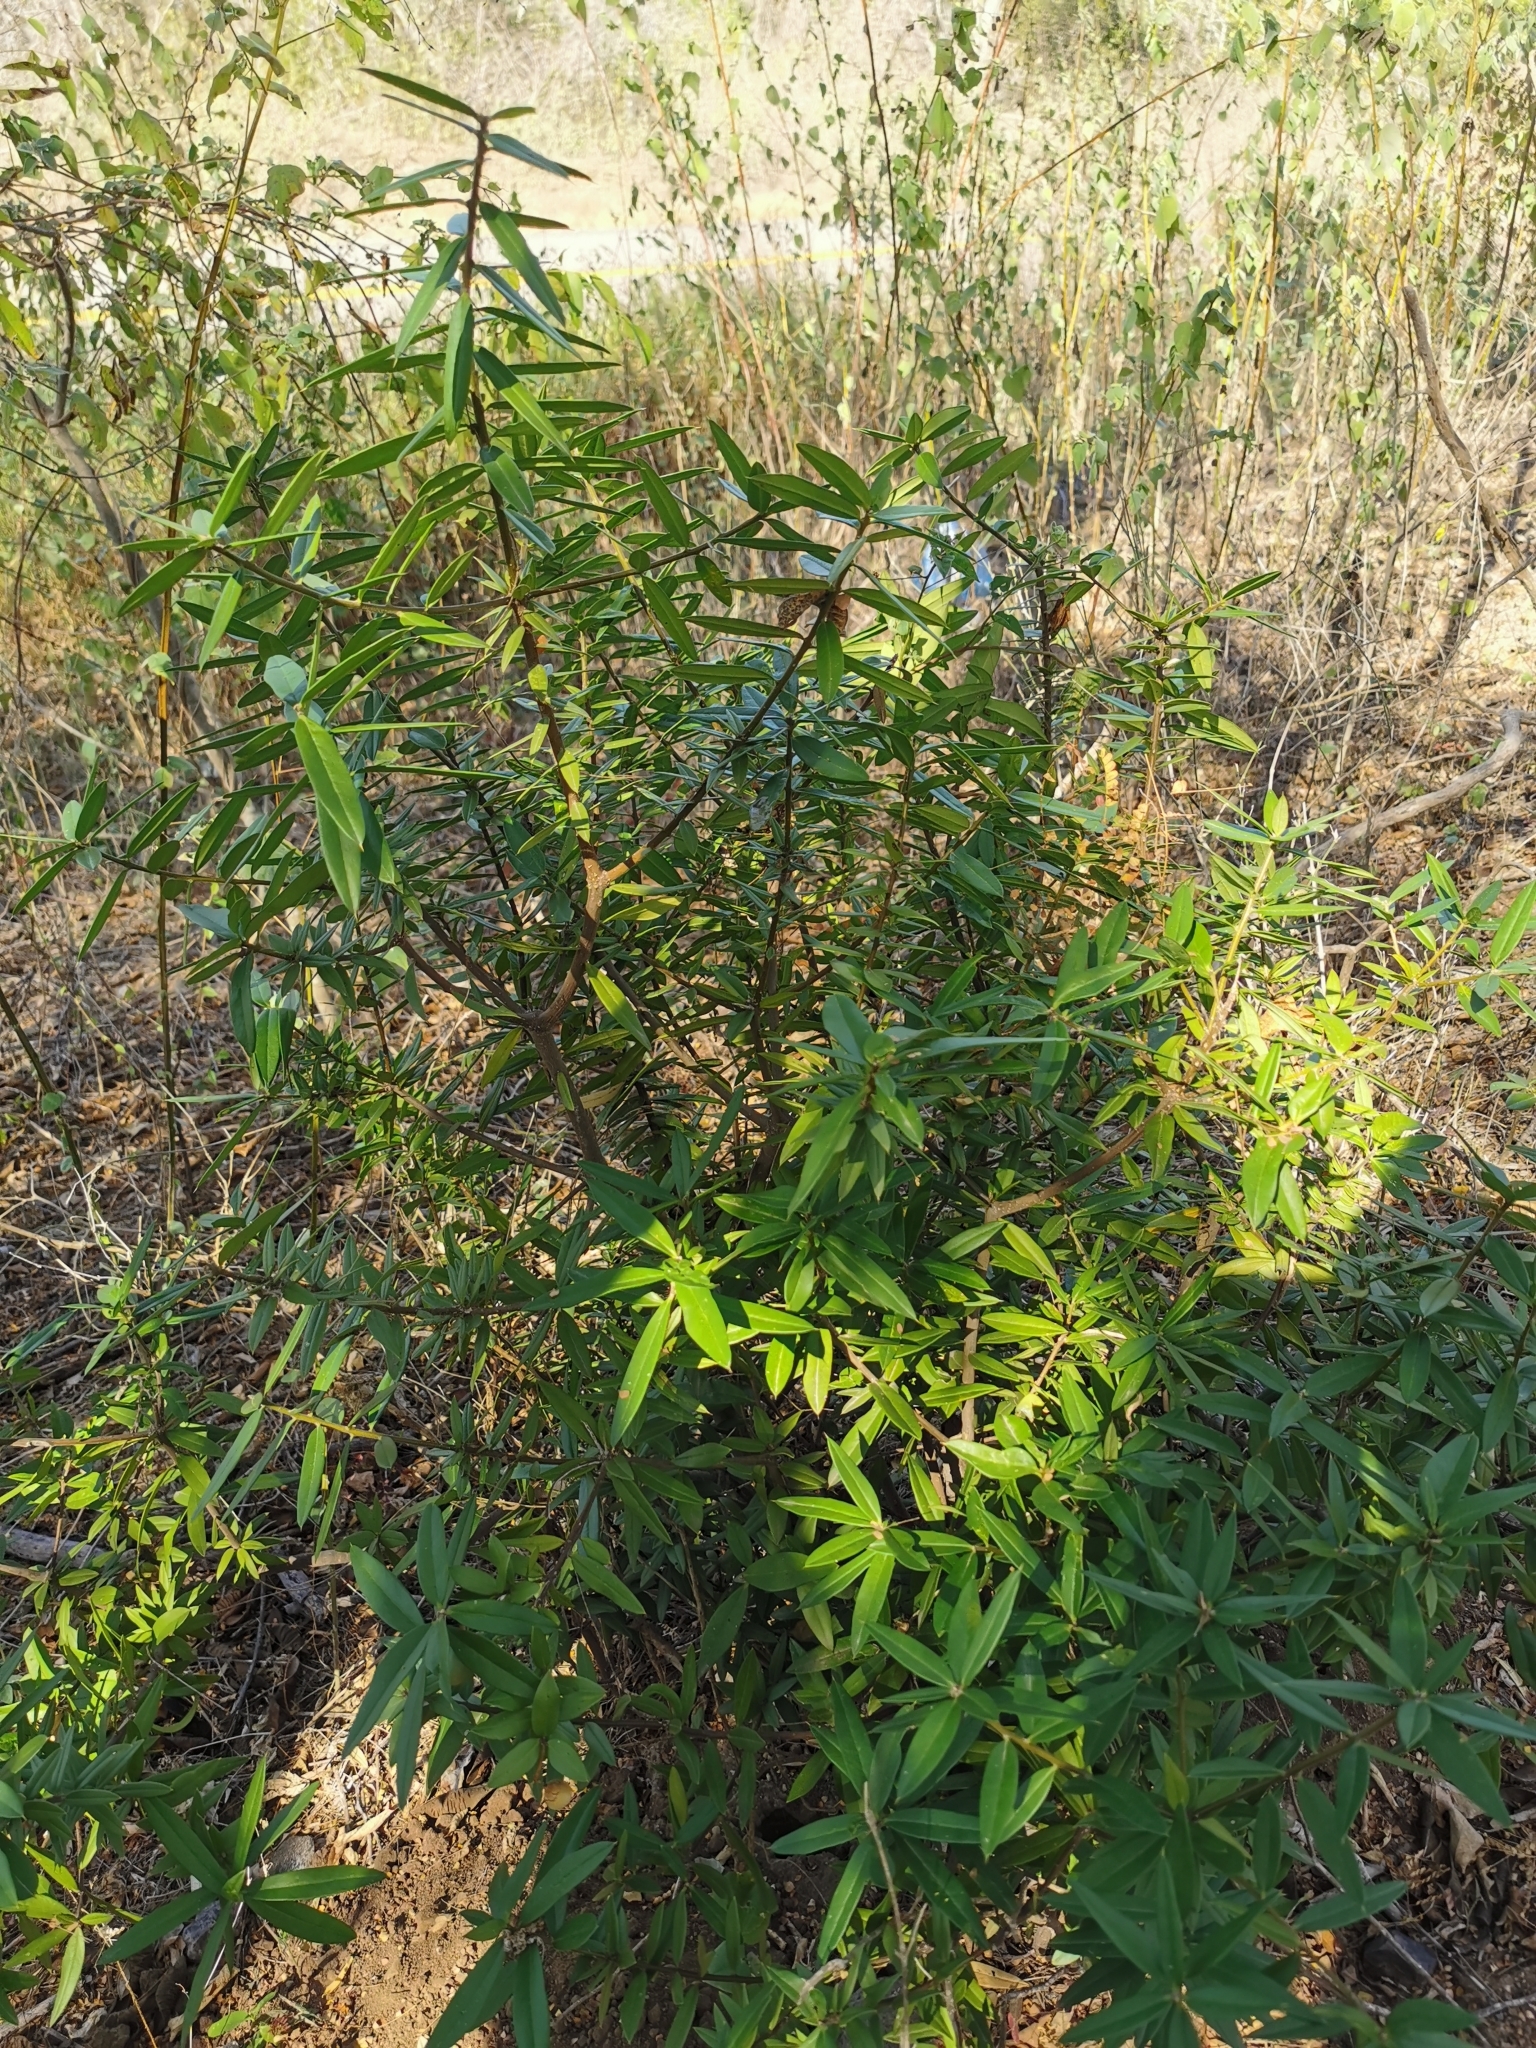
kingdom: Plantae
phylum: Tracheophyta
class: Magnoliopsida
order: Ericales
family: Primulaceae
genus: Bonellia
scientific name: Bonellia macrocarpa
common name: Primrose
